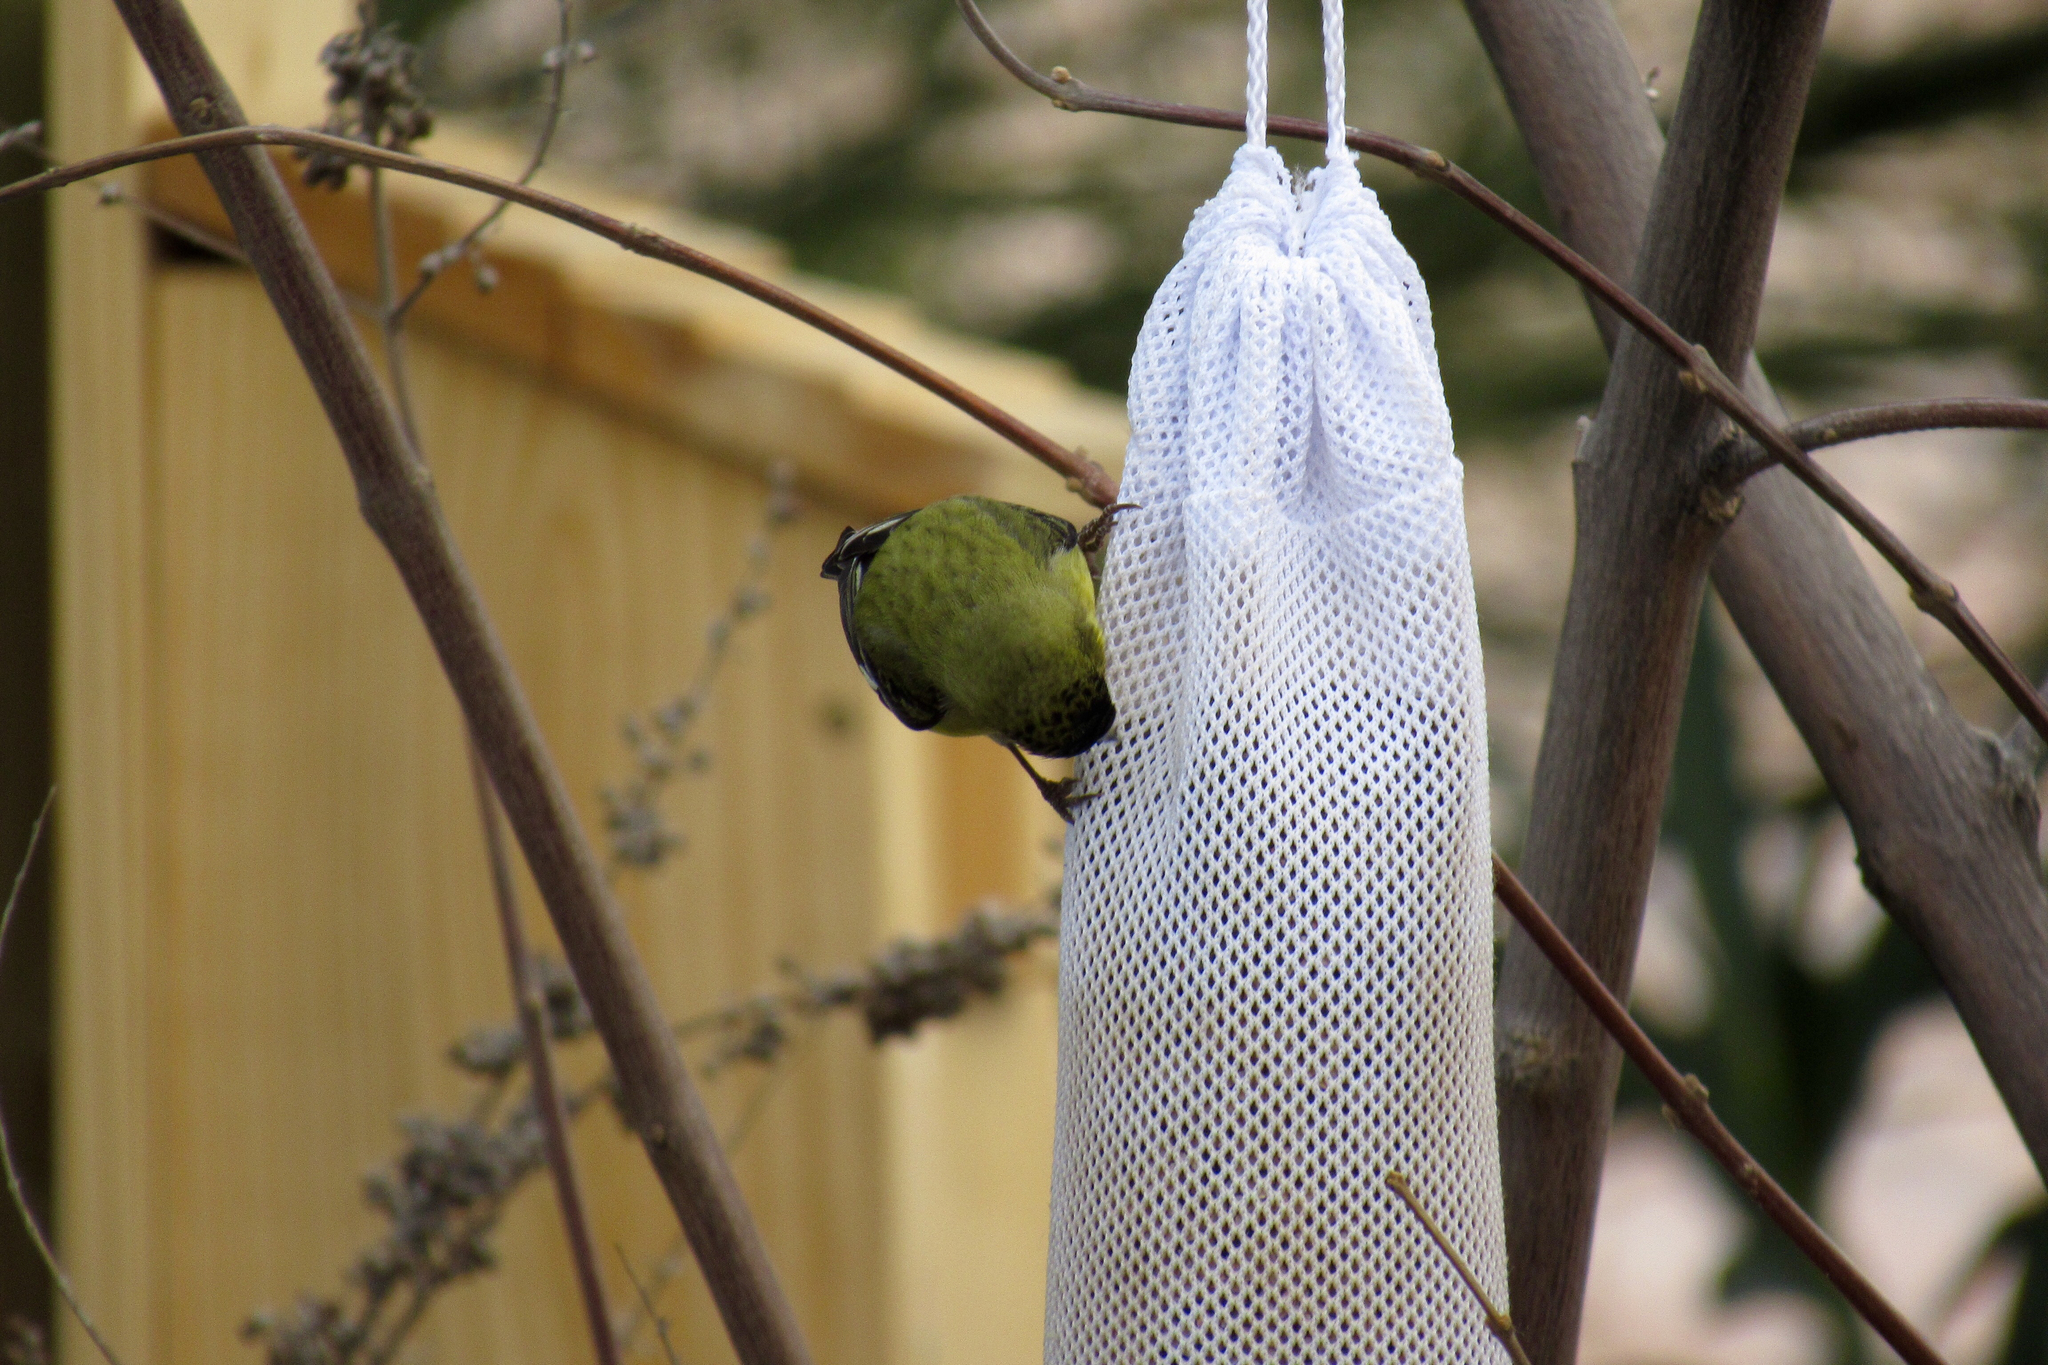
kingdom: Animalia
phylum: Chordata
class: Aves
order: Passeriformes
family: Fringillidae
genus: Spinus
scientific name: Spinus psaltria
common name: Lesser goldfinch
